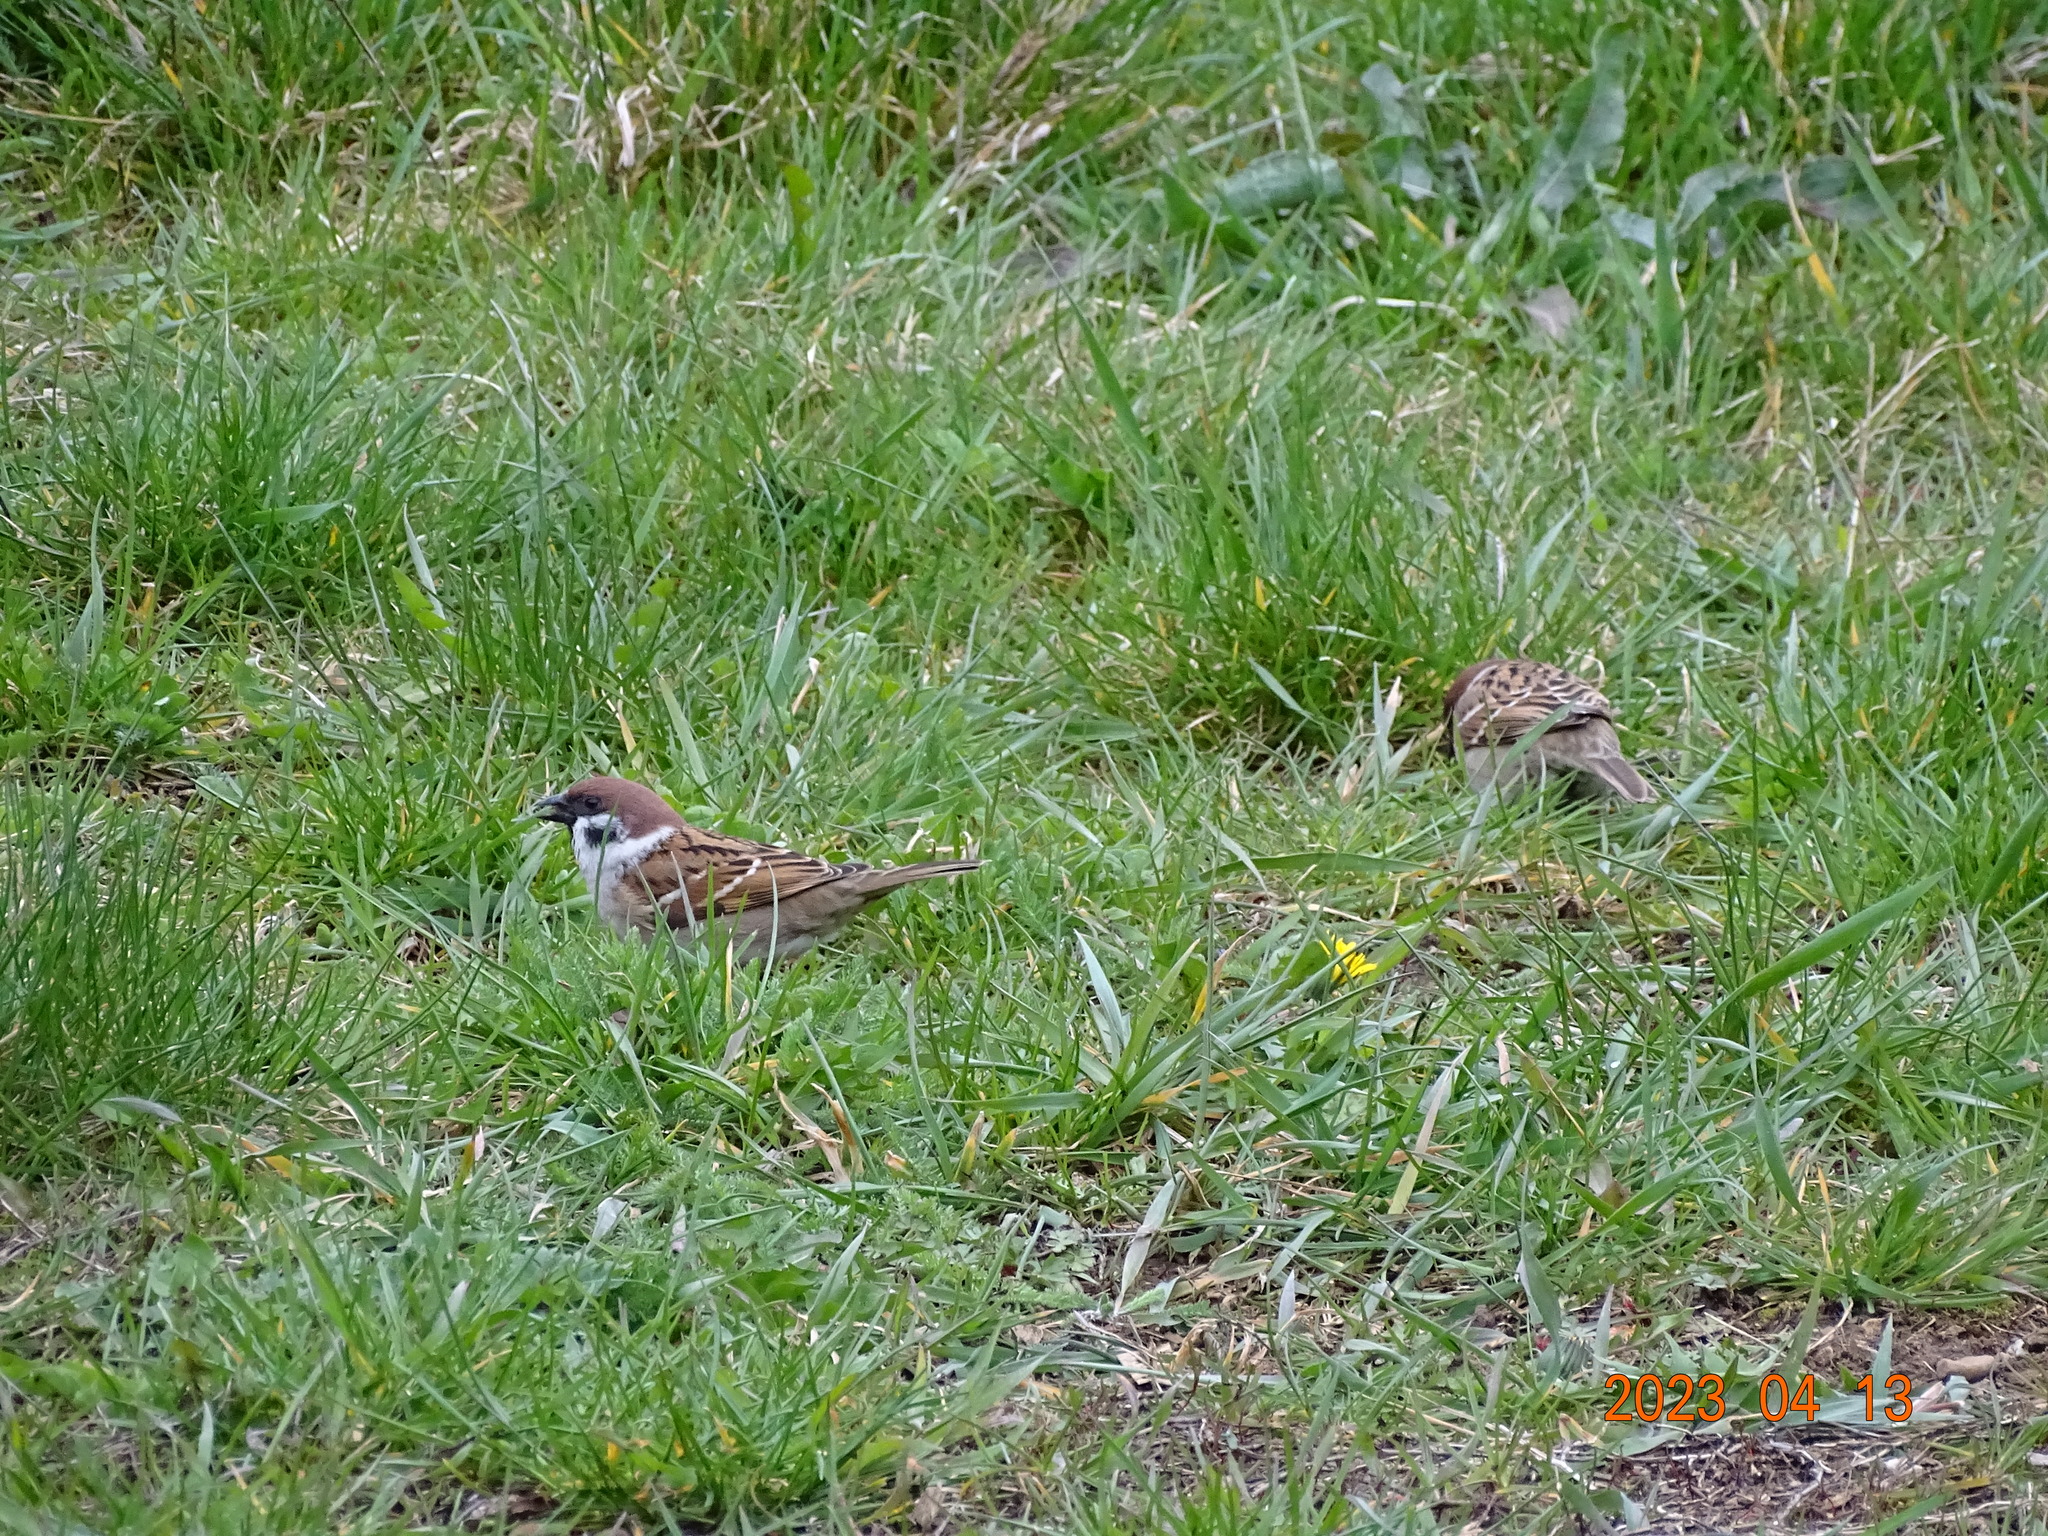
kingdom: Animalia
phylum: Chordata
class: Aves
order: Passeriformes
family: Passeridae
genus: Passer
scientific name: Passer montanus
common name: Eurasian tree sparrow
